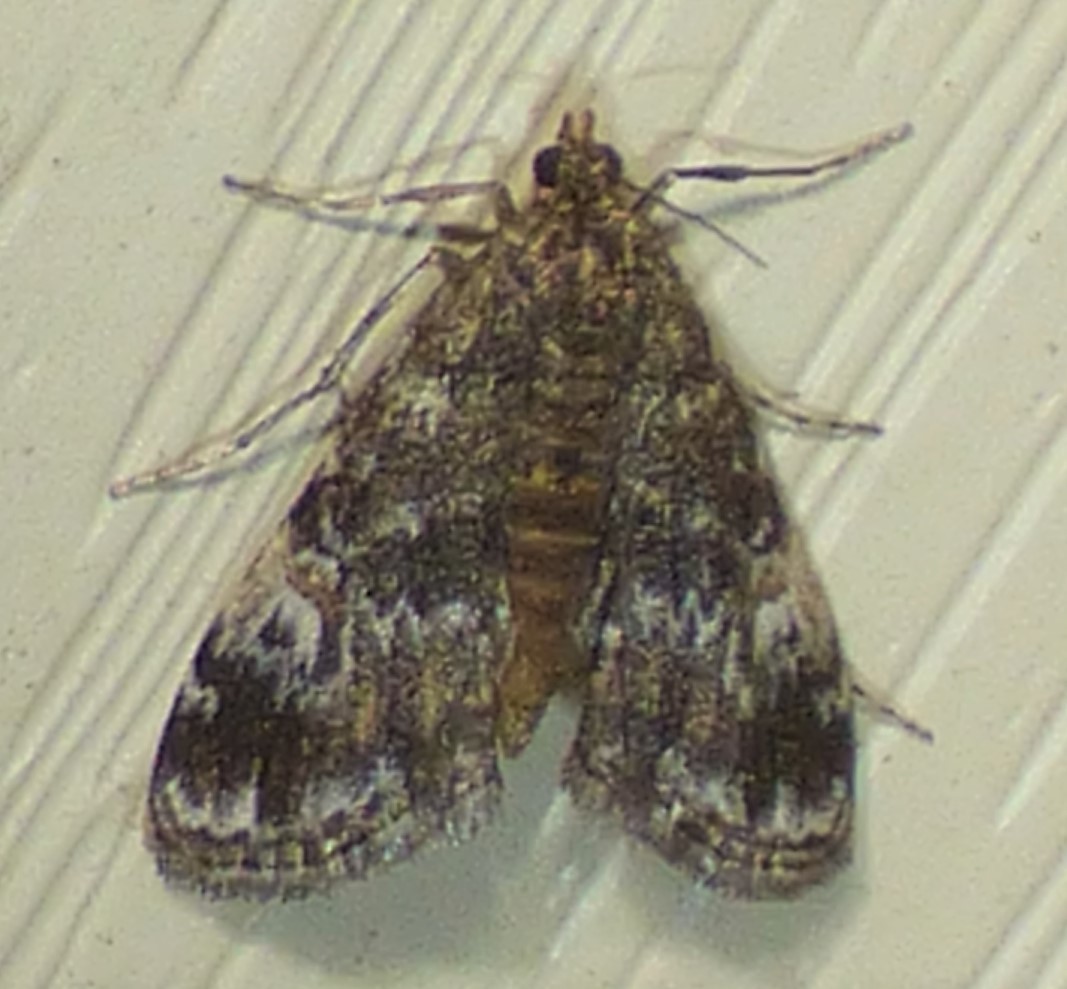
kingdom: Animalia
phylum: Arthropoda
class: Insecta
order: Lepidoptera
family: Crambidae
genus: Elophila
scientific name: Elophila obliteralis
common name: Waterlily leafcutter moth
